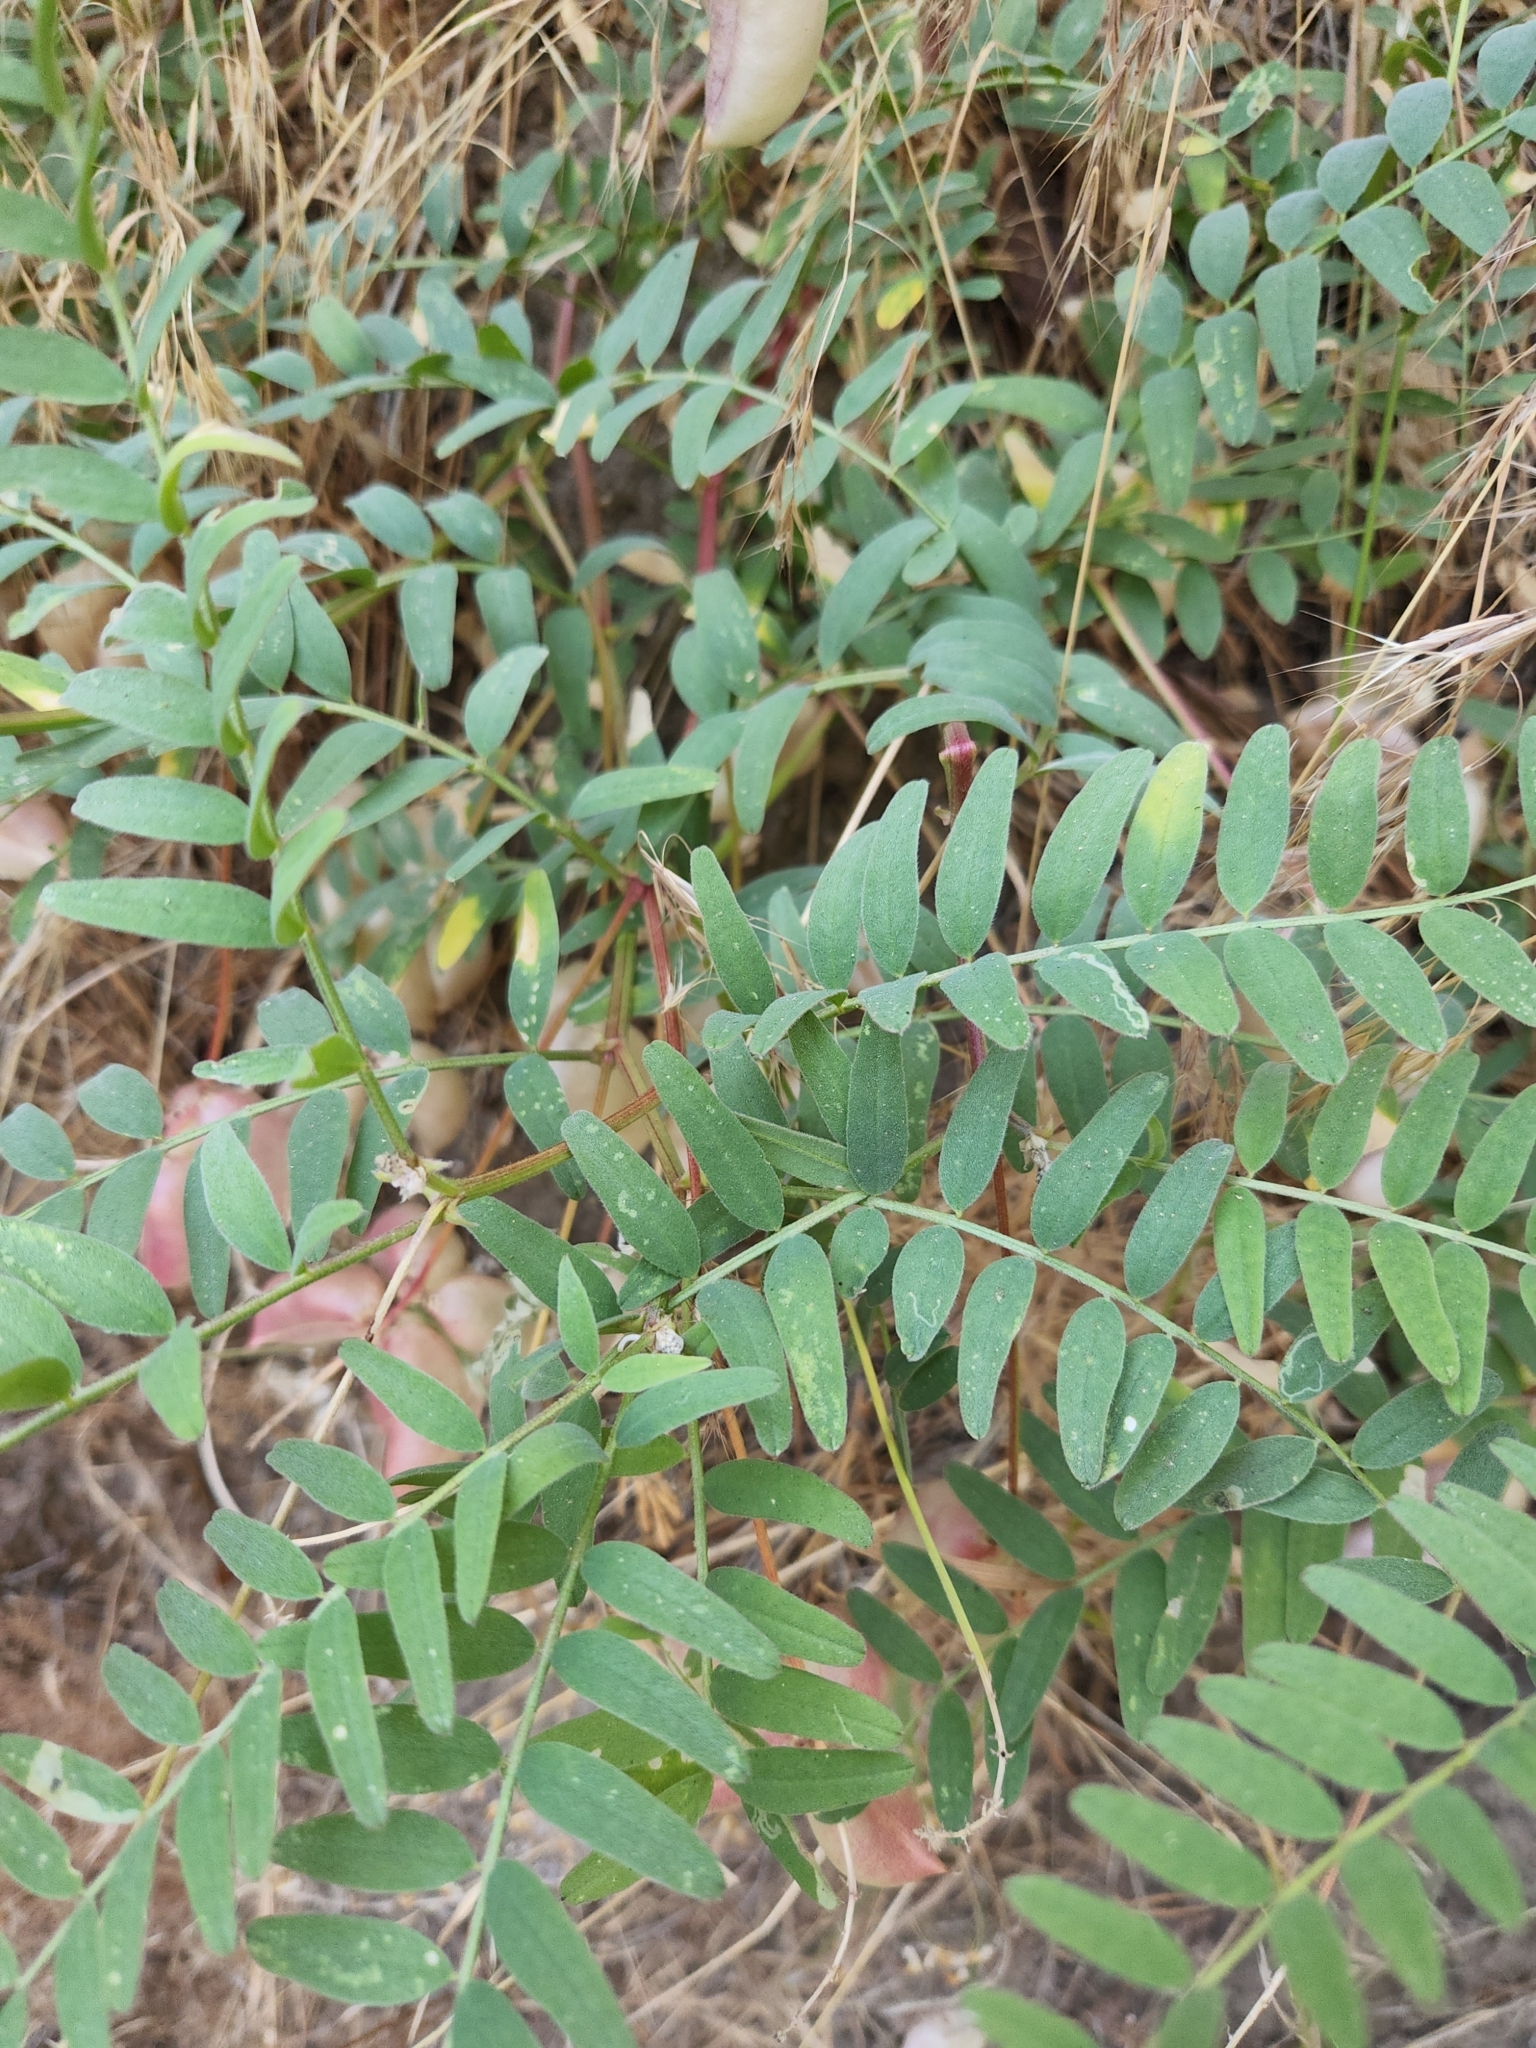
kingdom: Plantae
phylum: Tracheophyta
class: Magnoliopsida
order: Fabales
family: Fabaceae
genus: Astragalus
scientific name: Astragalus douglasii
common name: Jacumba milkvetch
